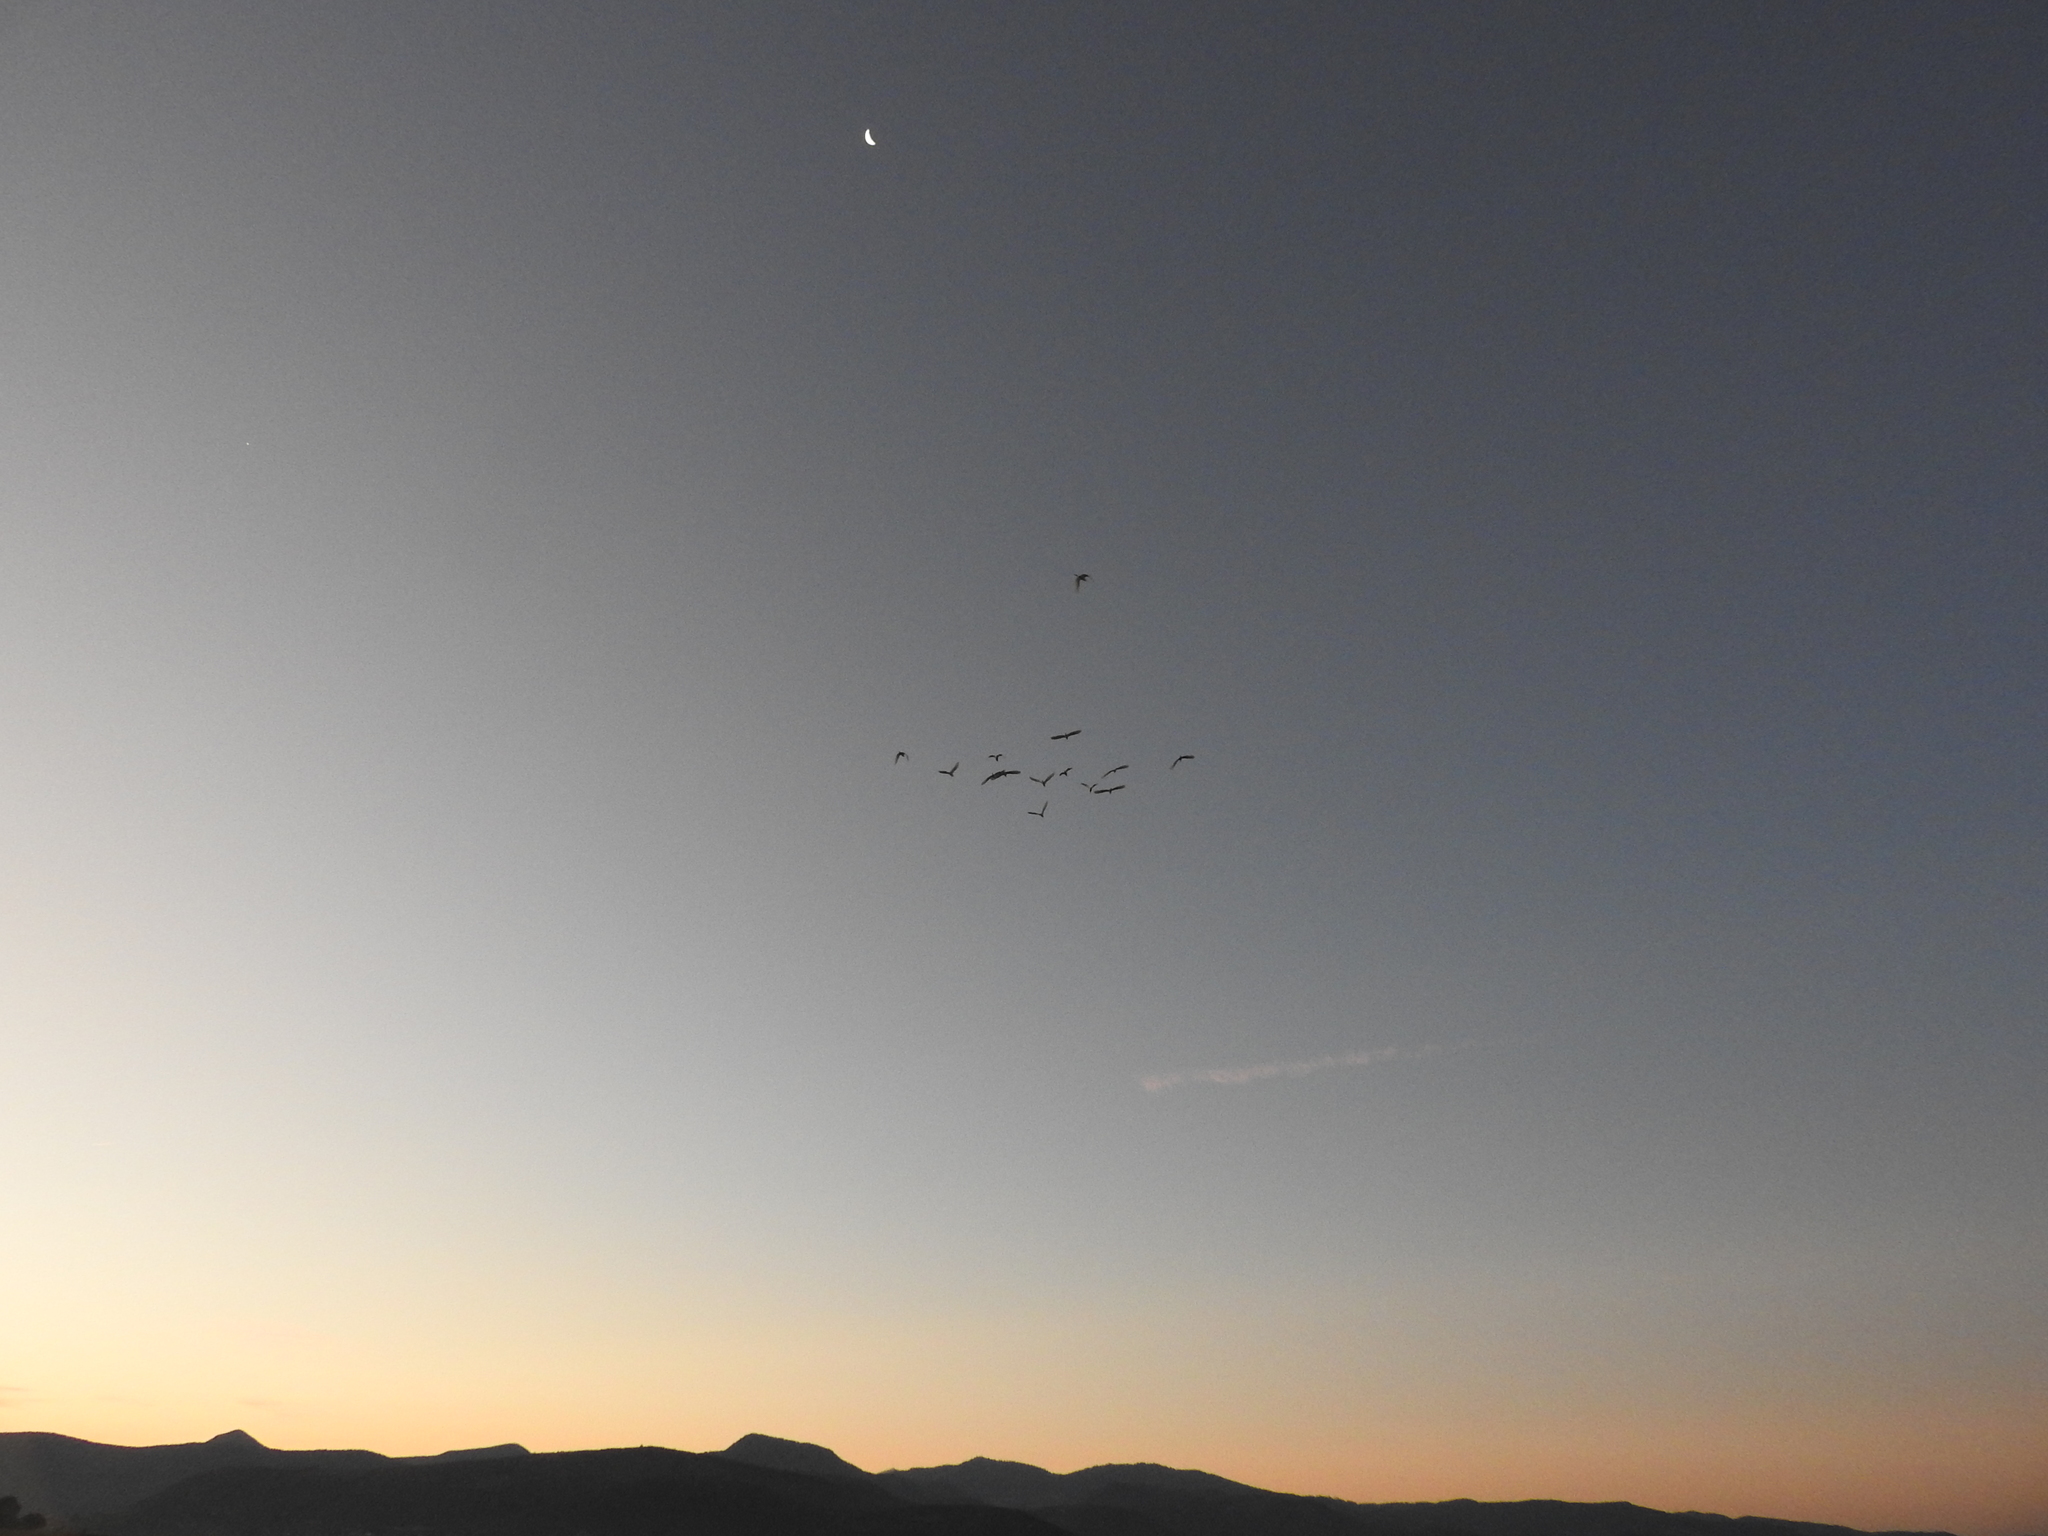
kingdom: Animalia
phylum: Chordata
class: Aves
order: Pelecaniformes
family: Ardeidae
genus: Bubulcus
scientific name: Bubulcus ibis
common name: Cattle egret
